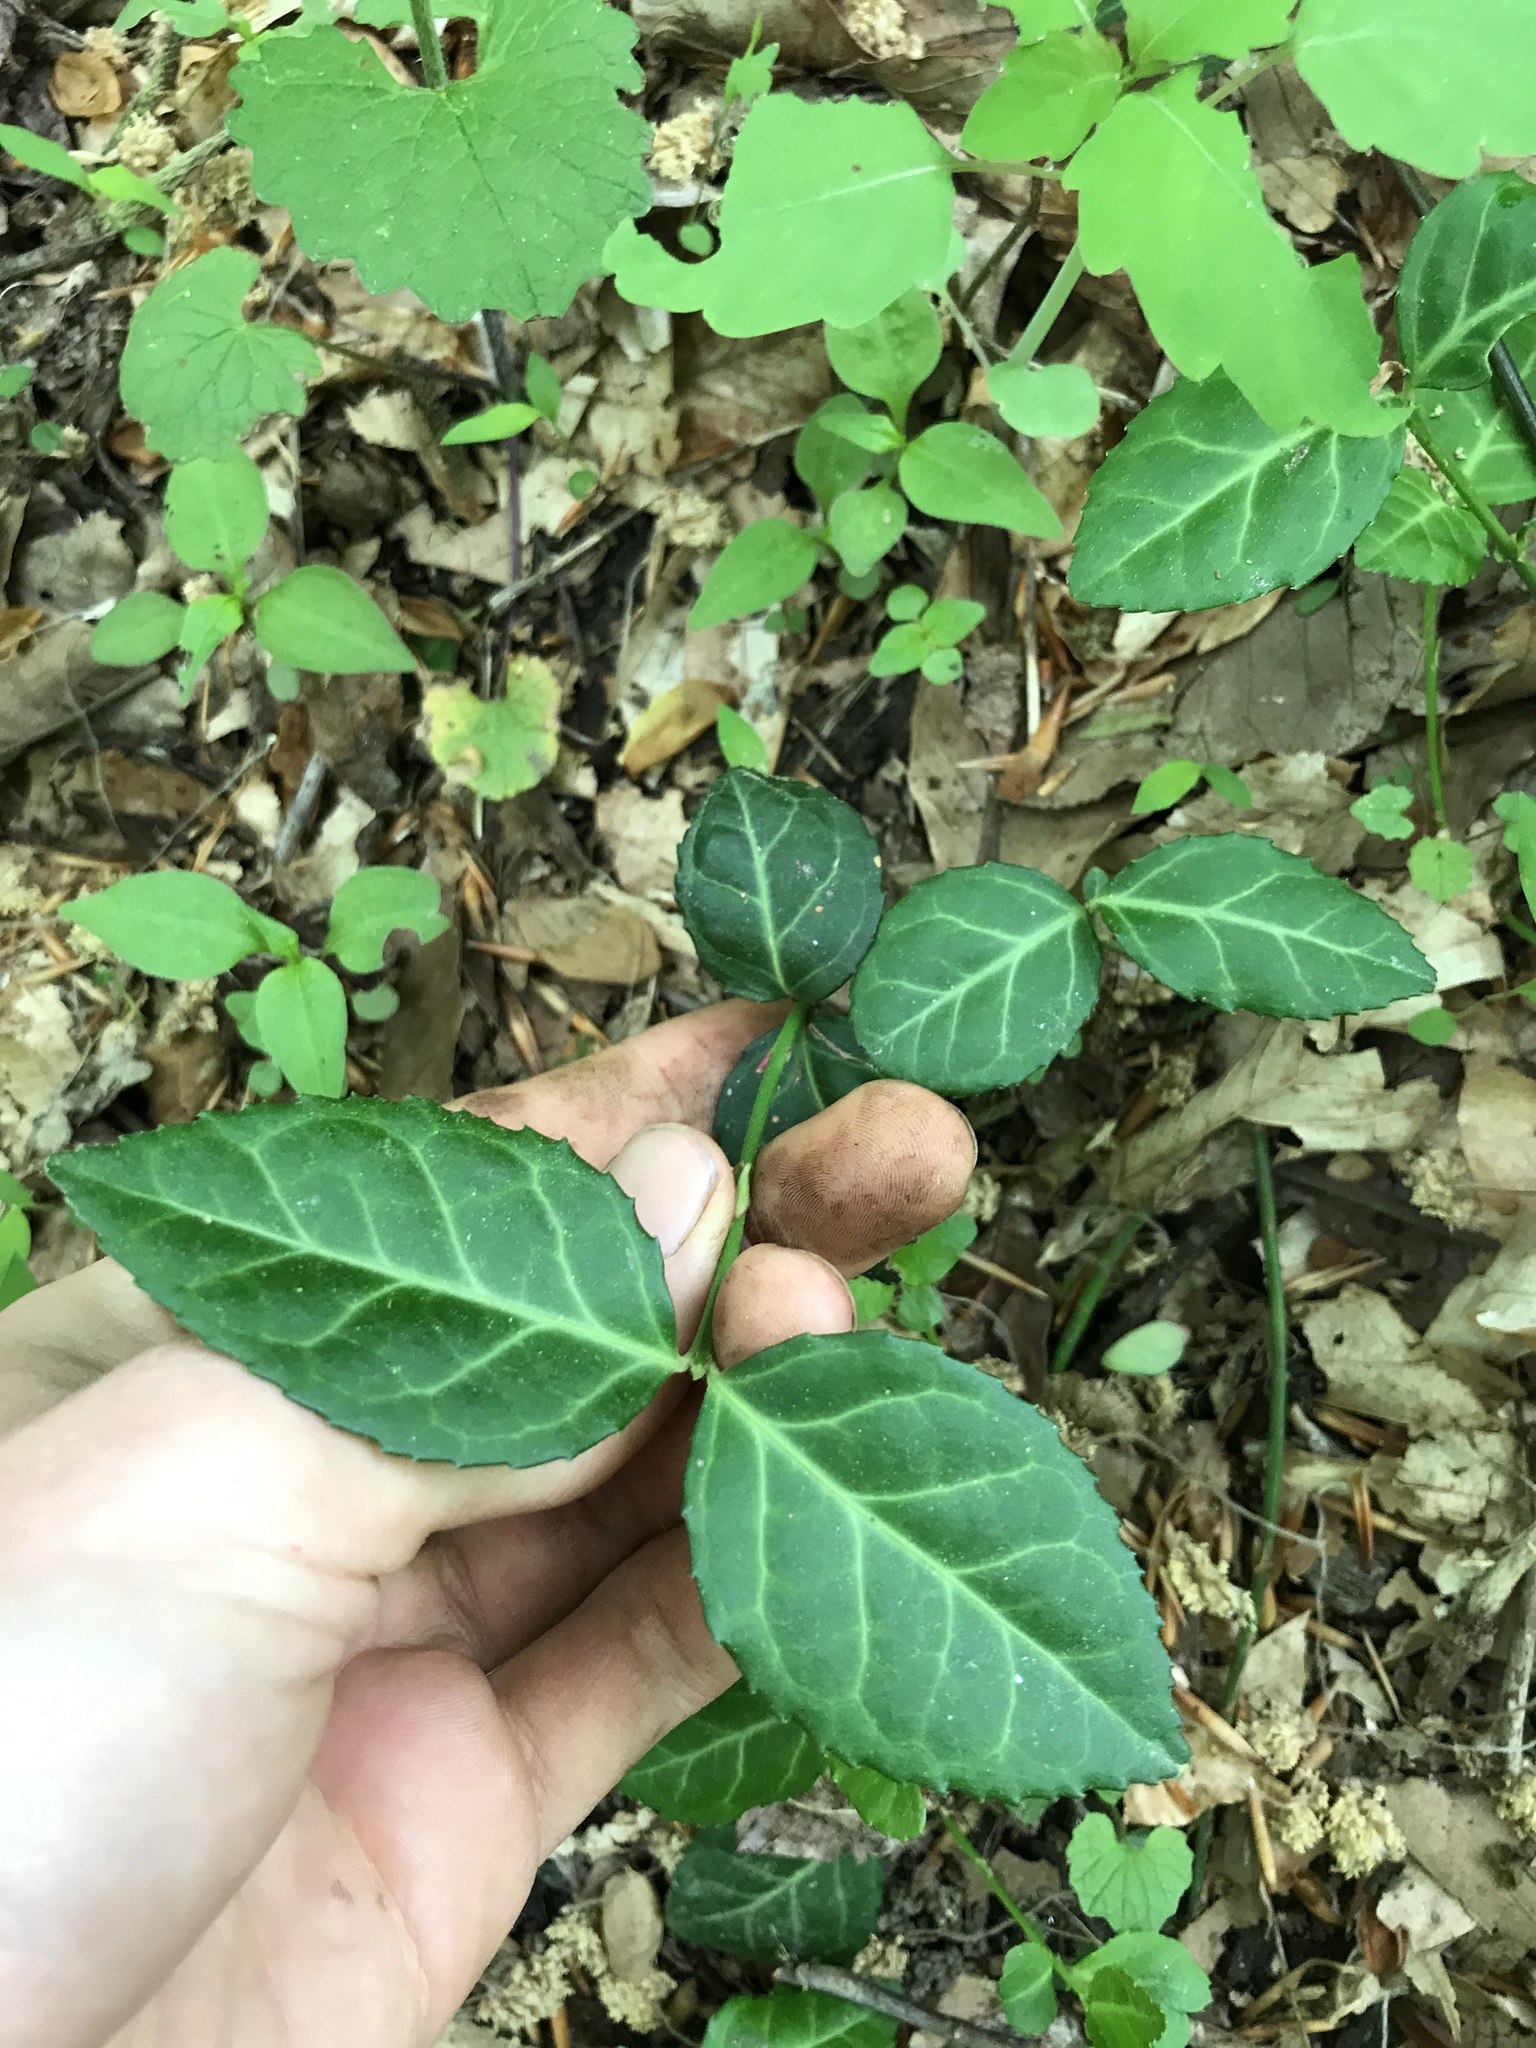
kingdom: Plantae
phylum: Tracheophyta
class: Magnoliopsida
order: Celastrales
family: Celastraceae
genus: Euonymus
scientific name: Euonymus fortunei
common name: Climbing euonymus
